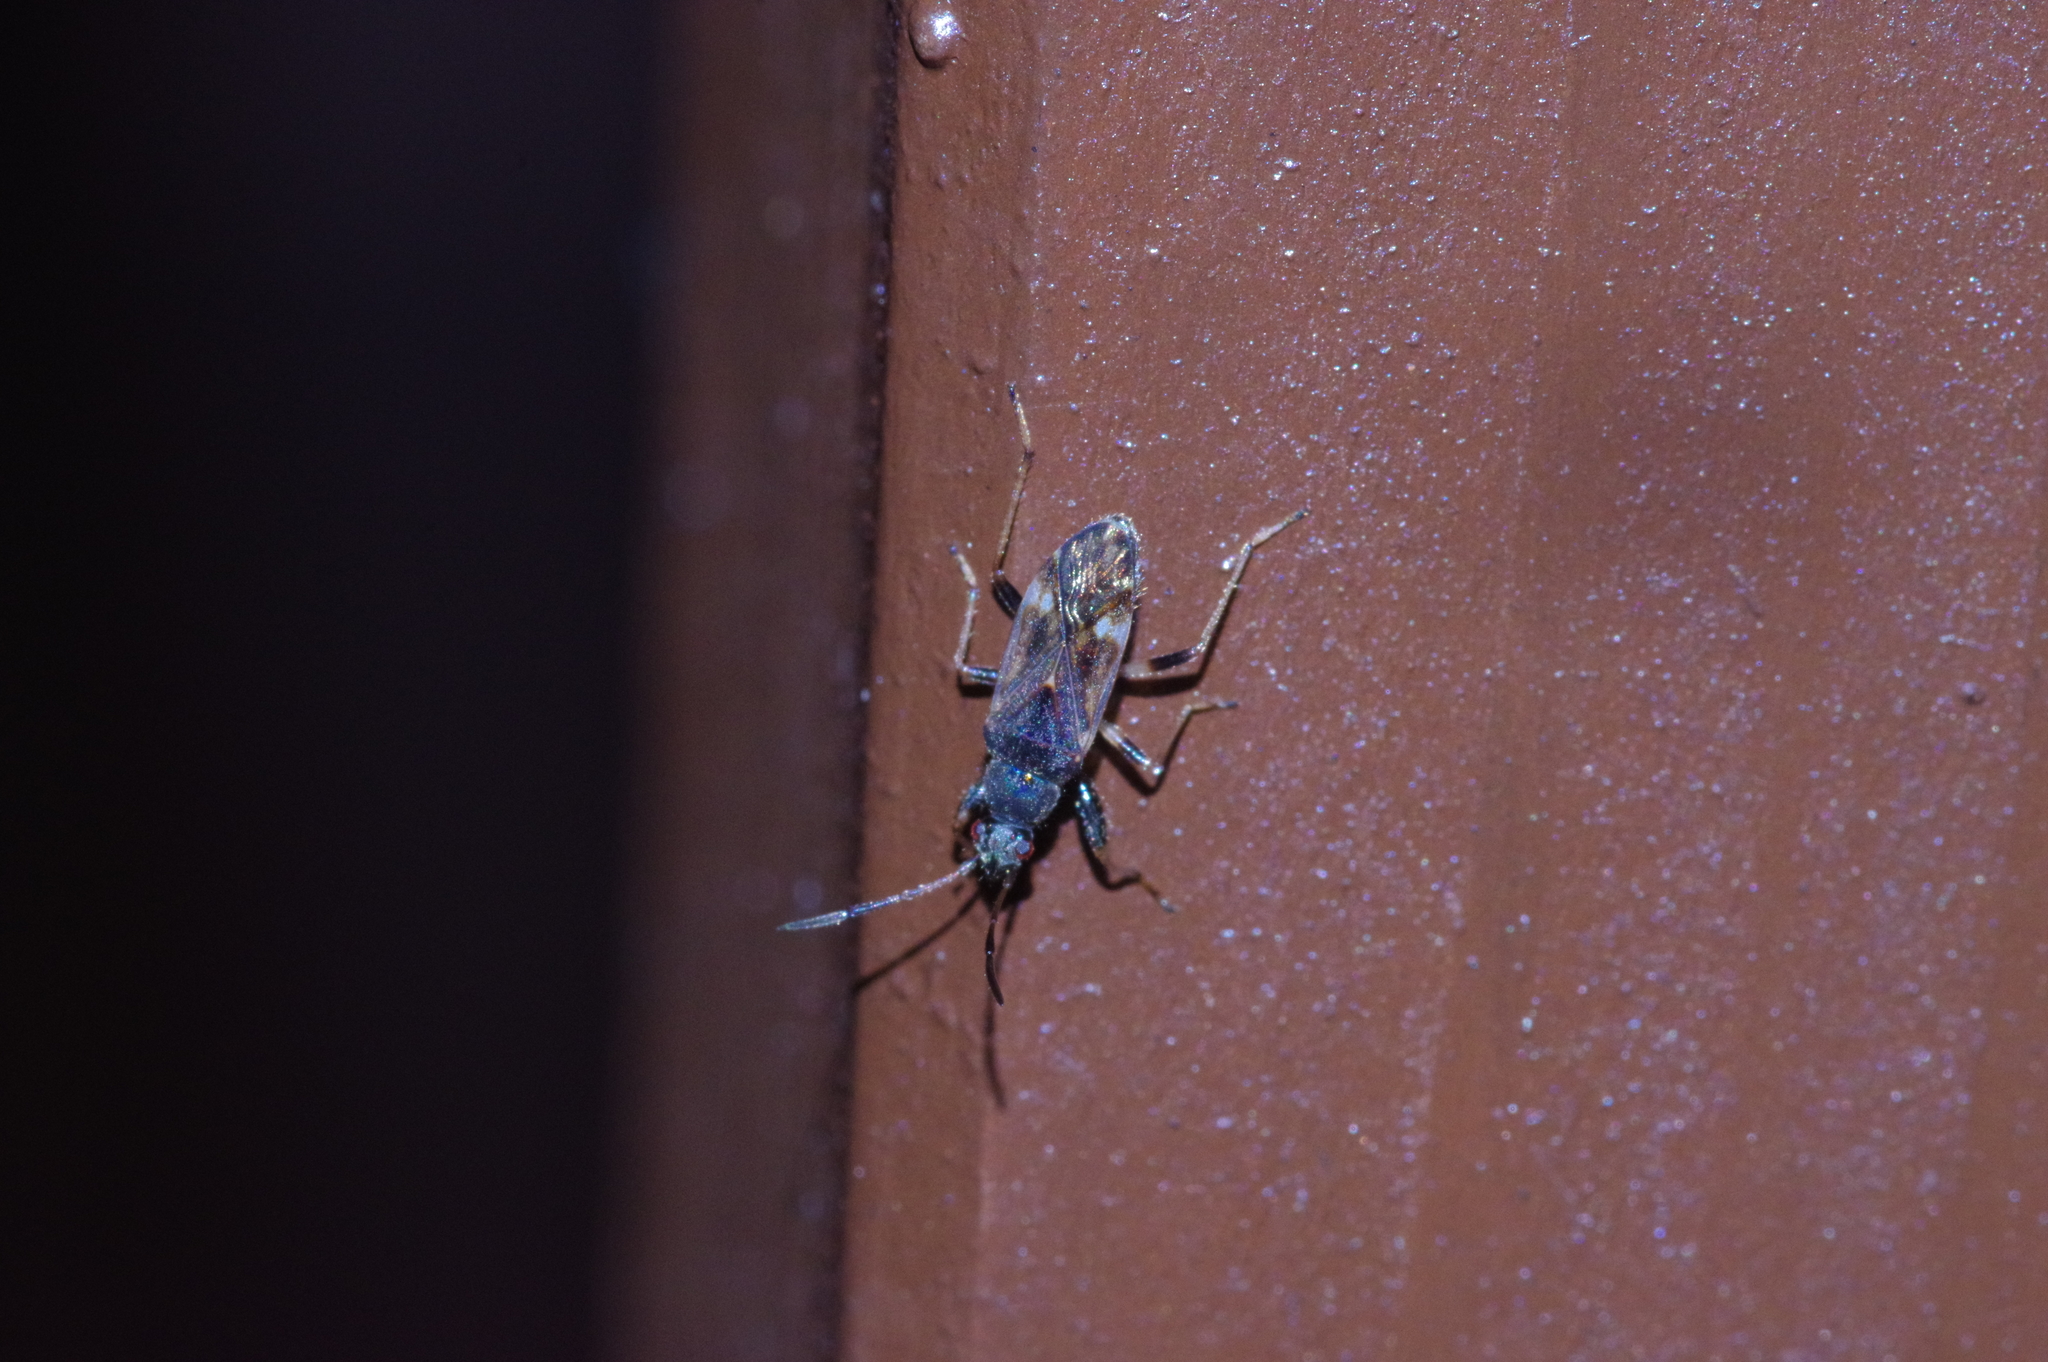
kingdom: Animalia
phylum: Arthropoda
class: Insecta
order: Hemiptera
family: Rhyparochromidae
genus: Horridipamera
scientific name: Horridipamera nietneri
